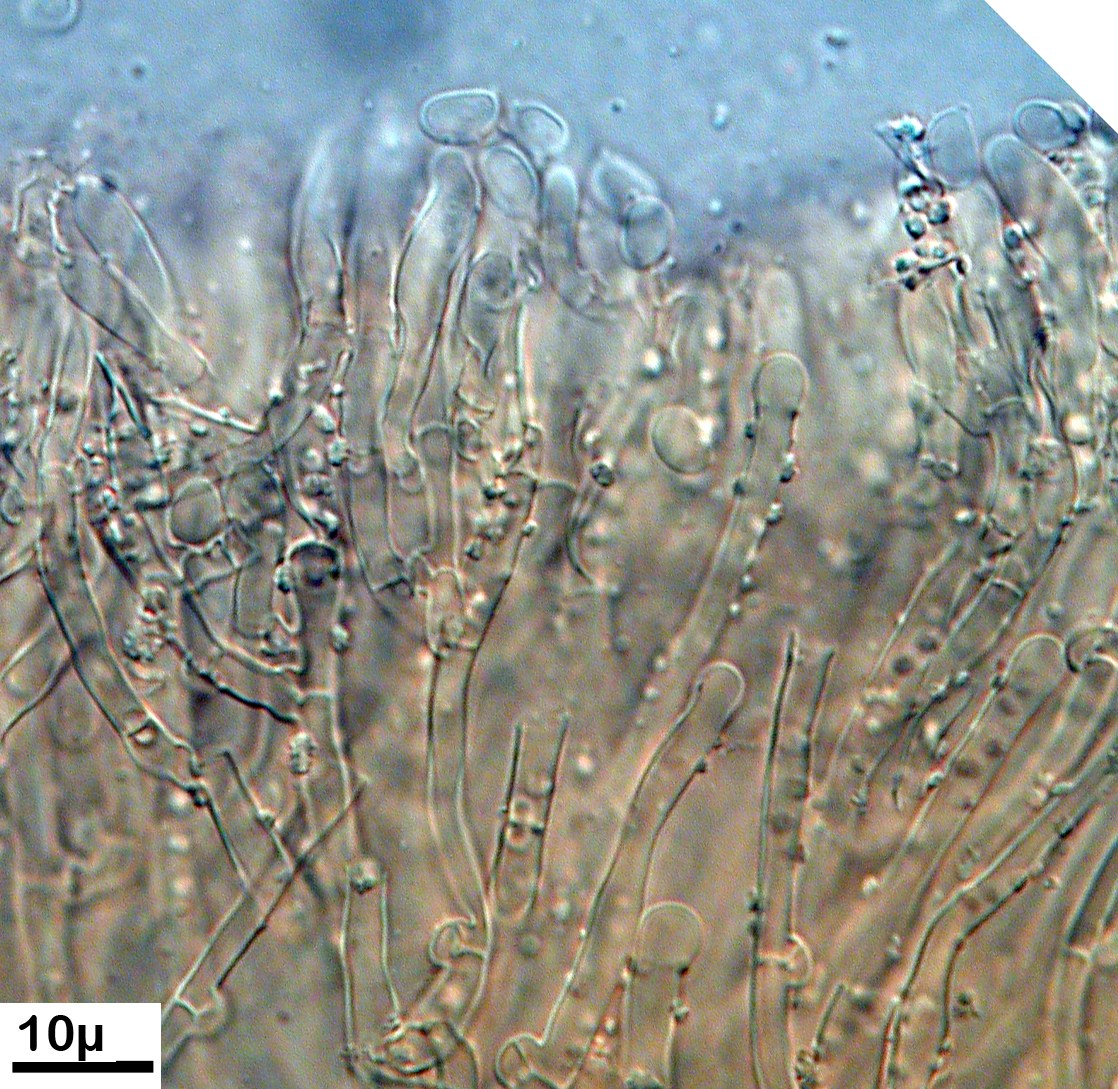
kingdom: Fungi
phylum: Basidiomycota
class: Agaricomycetes
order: Hymenochaetales
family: Schizoporaceae
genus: Lyomyces
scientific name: Lyomyces
